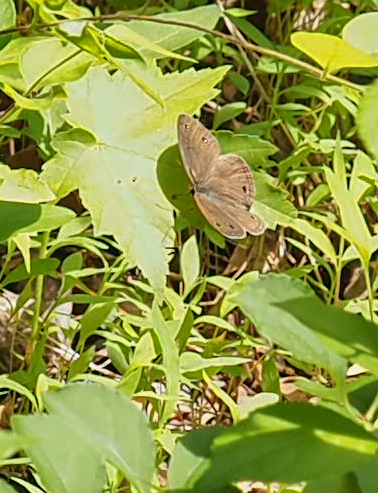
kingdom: Animalia
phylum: Arthropoda
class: Insecta
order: Lepidoptera
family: Nymphalidae
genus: Euptychia
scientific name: Euptychia cymela
